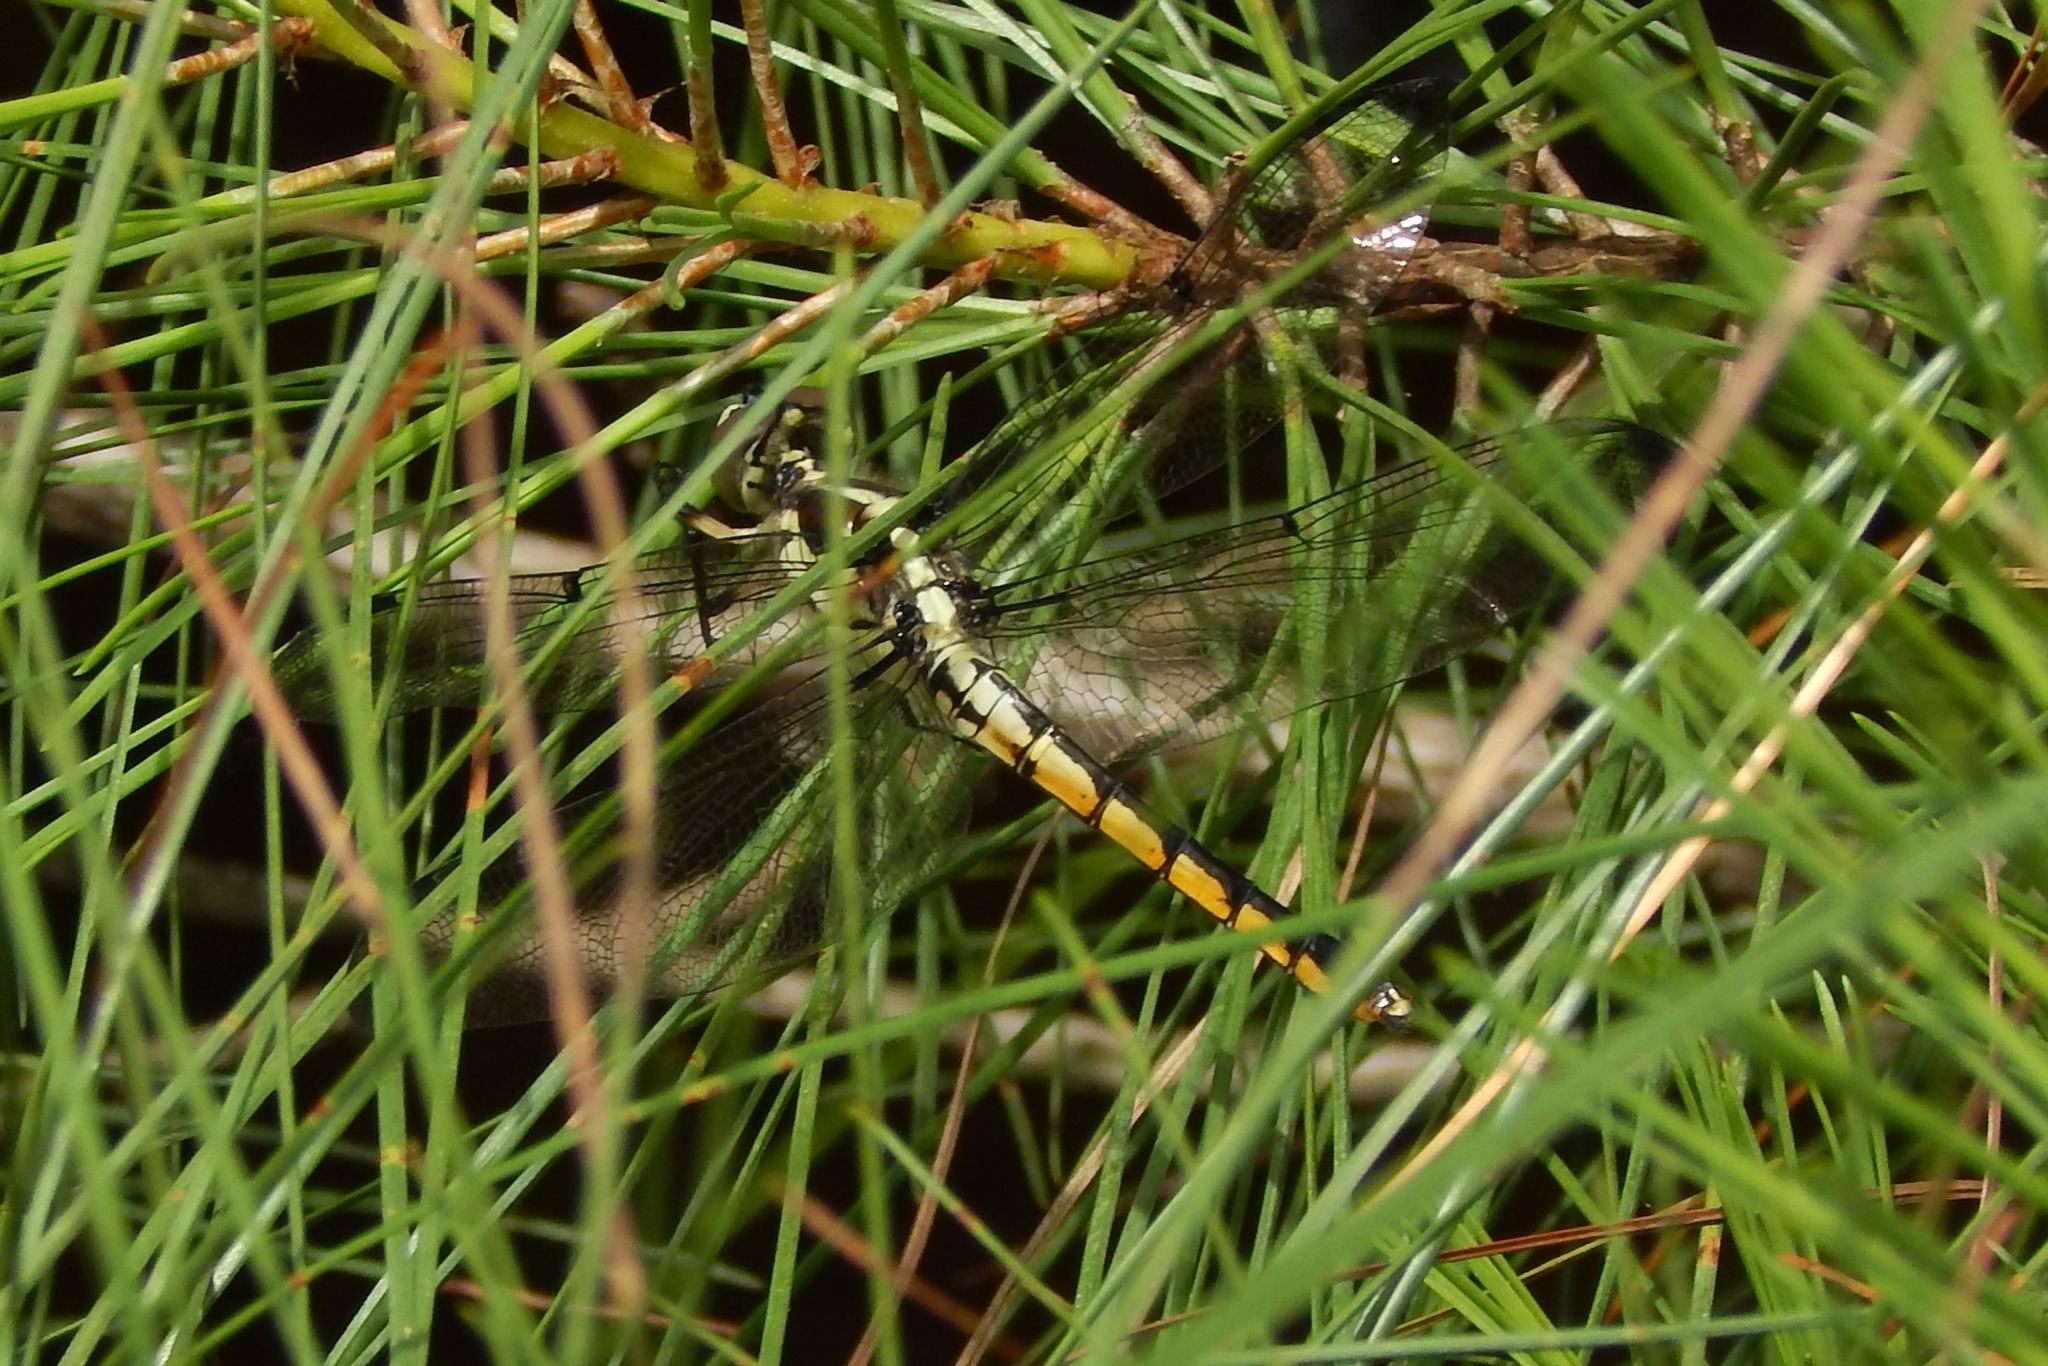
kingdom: Animalia
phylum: Arthropoda
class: Insecta
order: Odonata
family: Libellulidae
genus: Libellula
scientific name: Libellula vibrans
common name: Great blue skimmer
